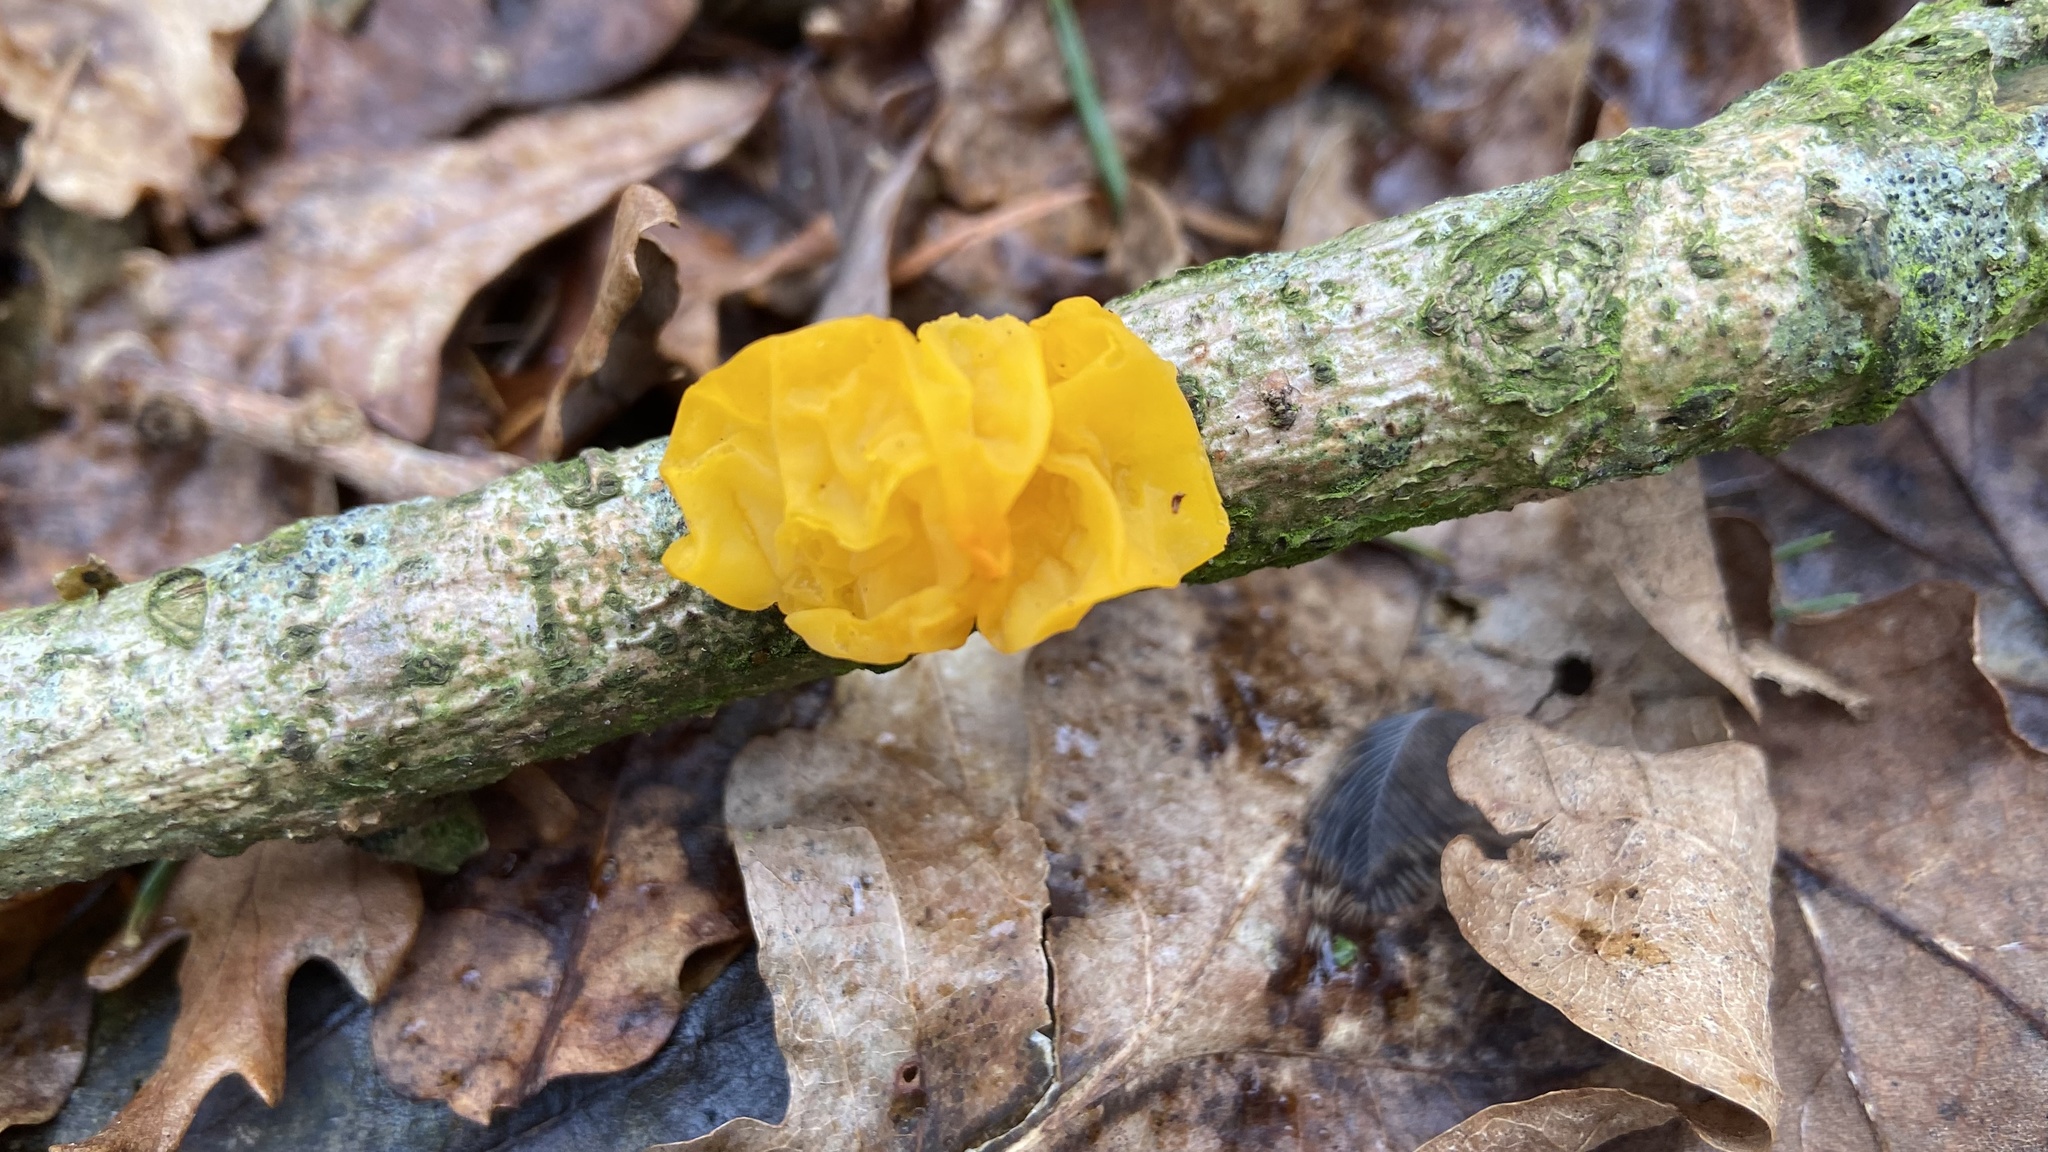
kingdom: Fungi
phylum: Basidiomycota
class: Tremellomycetes
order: Tremellales
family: Tremellaceae
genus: Tremella
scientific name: Tremella mesenterica
